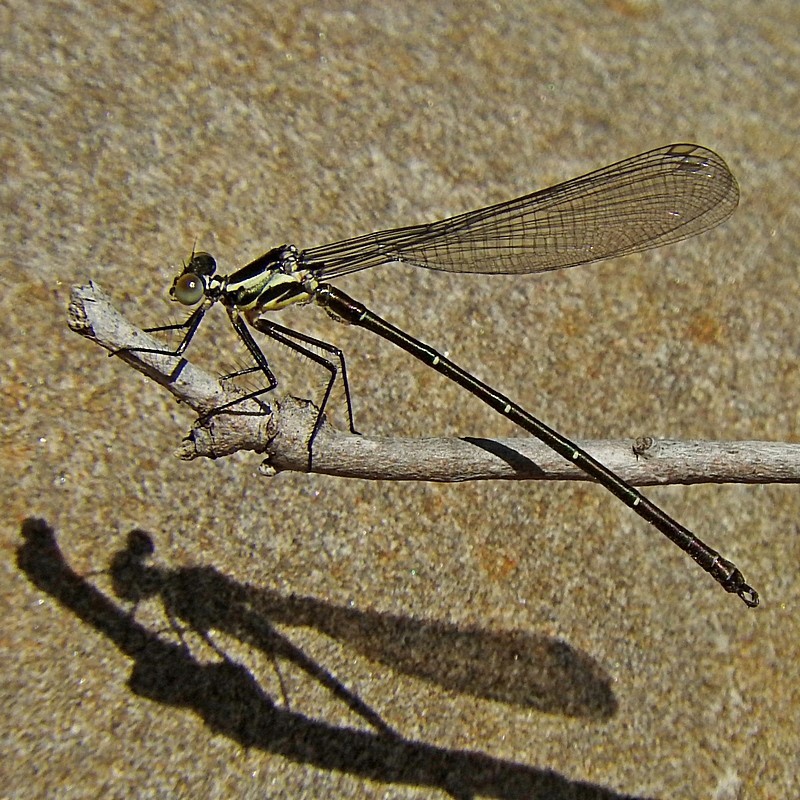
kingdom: Animalia
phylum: Arthropoda
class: Insecta
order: Odonata
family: Argiolestidae
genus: Austroargiolestes
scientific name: Austroargiolestes icteromelas
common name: Common flatwing
